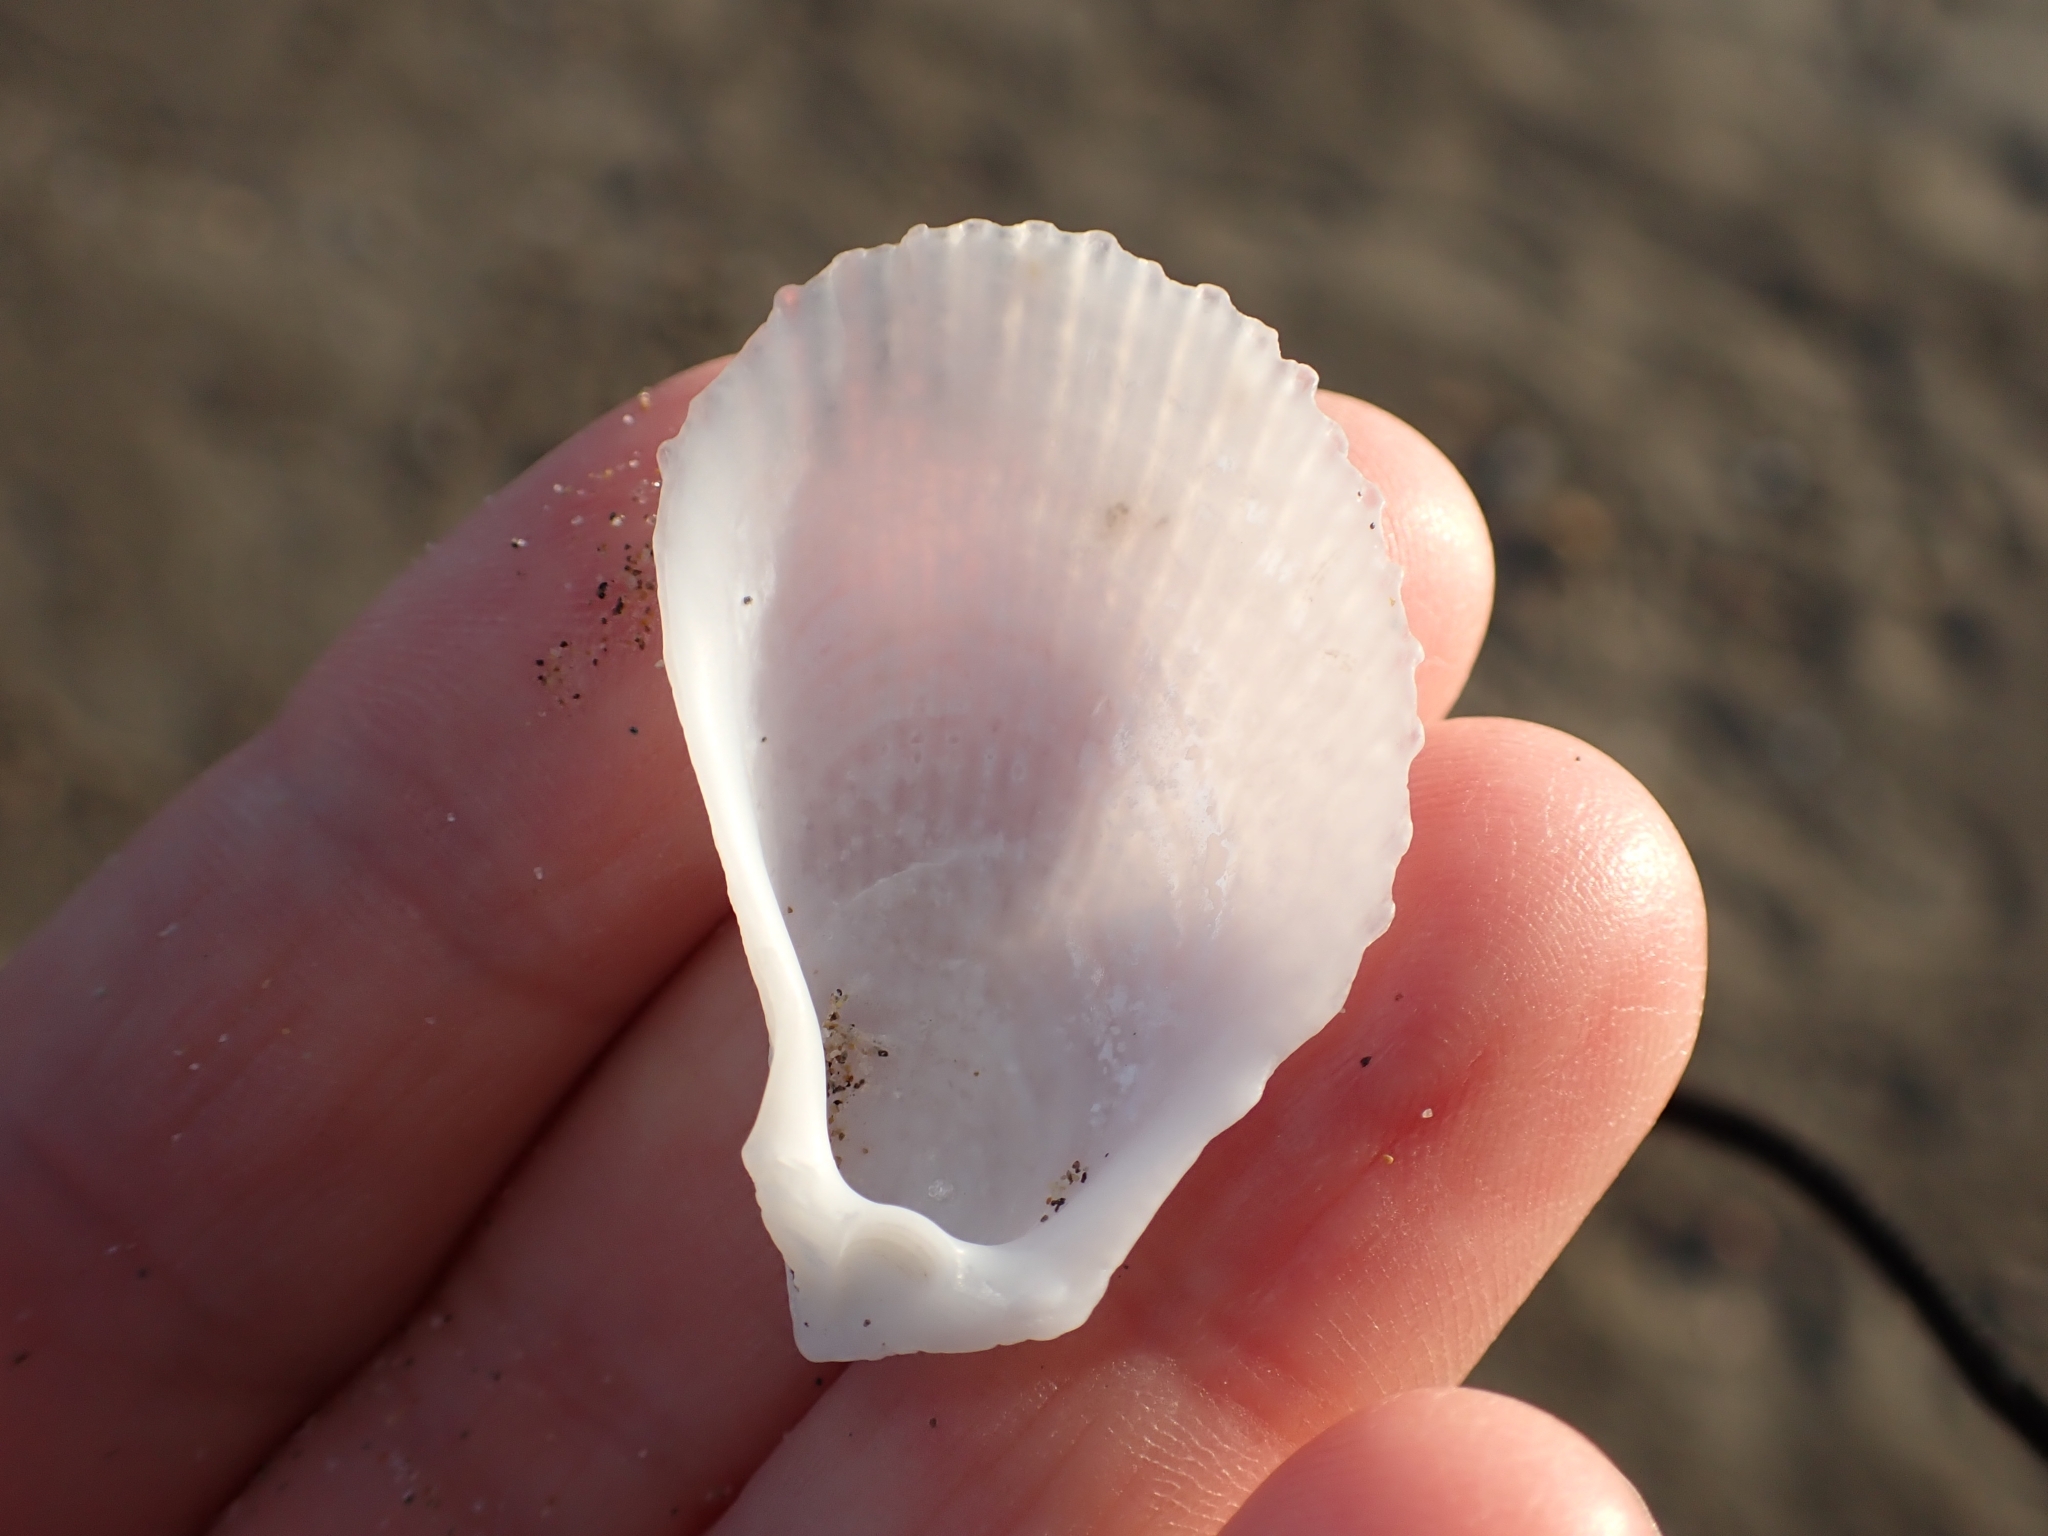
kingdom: Animalia
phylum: Mollusca
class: Bivalvia
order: Limida
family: Limidae
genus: Lima
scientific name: Lima lima
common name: Frilled file shell
